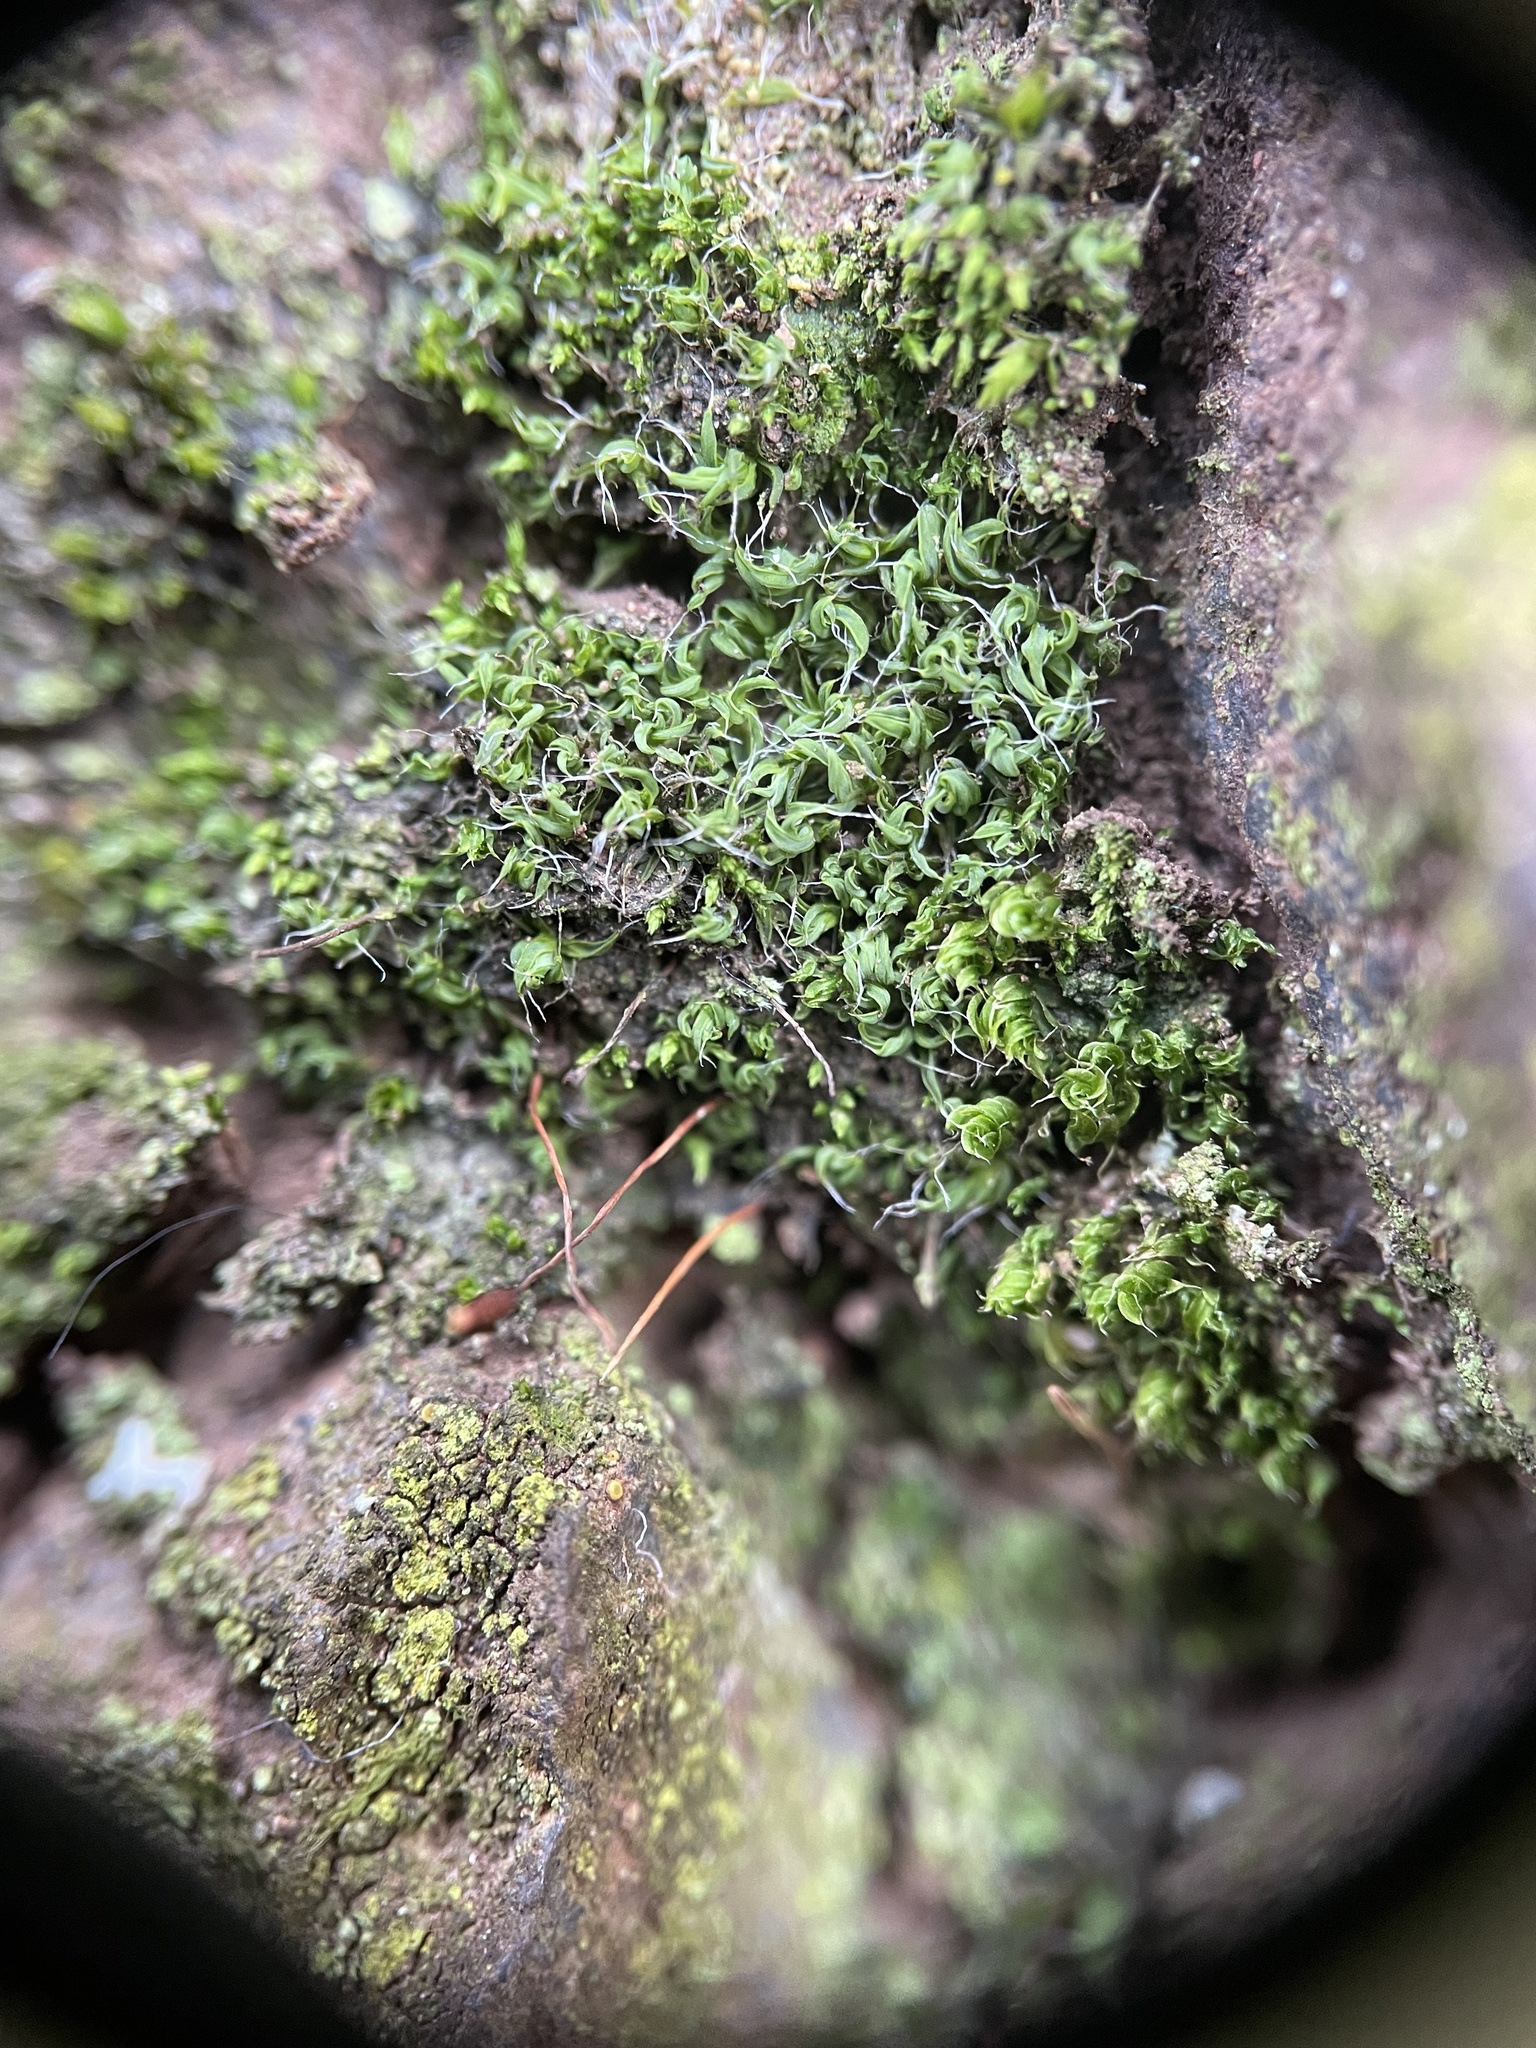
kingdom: Plantae
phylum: Bryophyta
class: Bryopsida
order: Pottiales
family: Pottiaceae
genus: Tortula
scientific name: Tortula muralis
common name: Wall screw-moss
